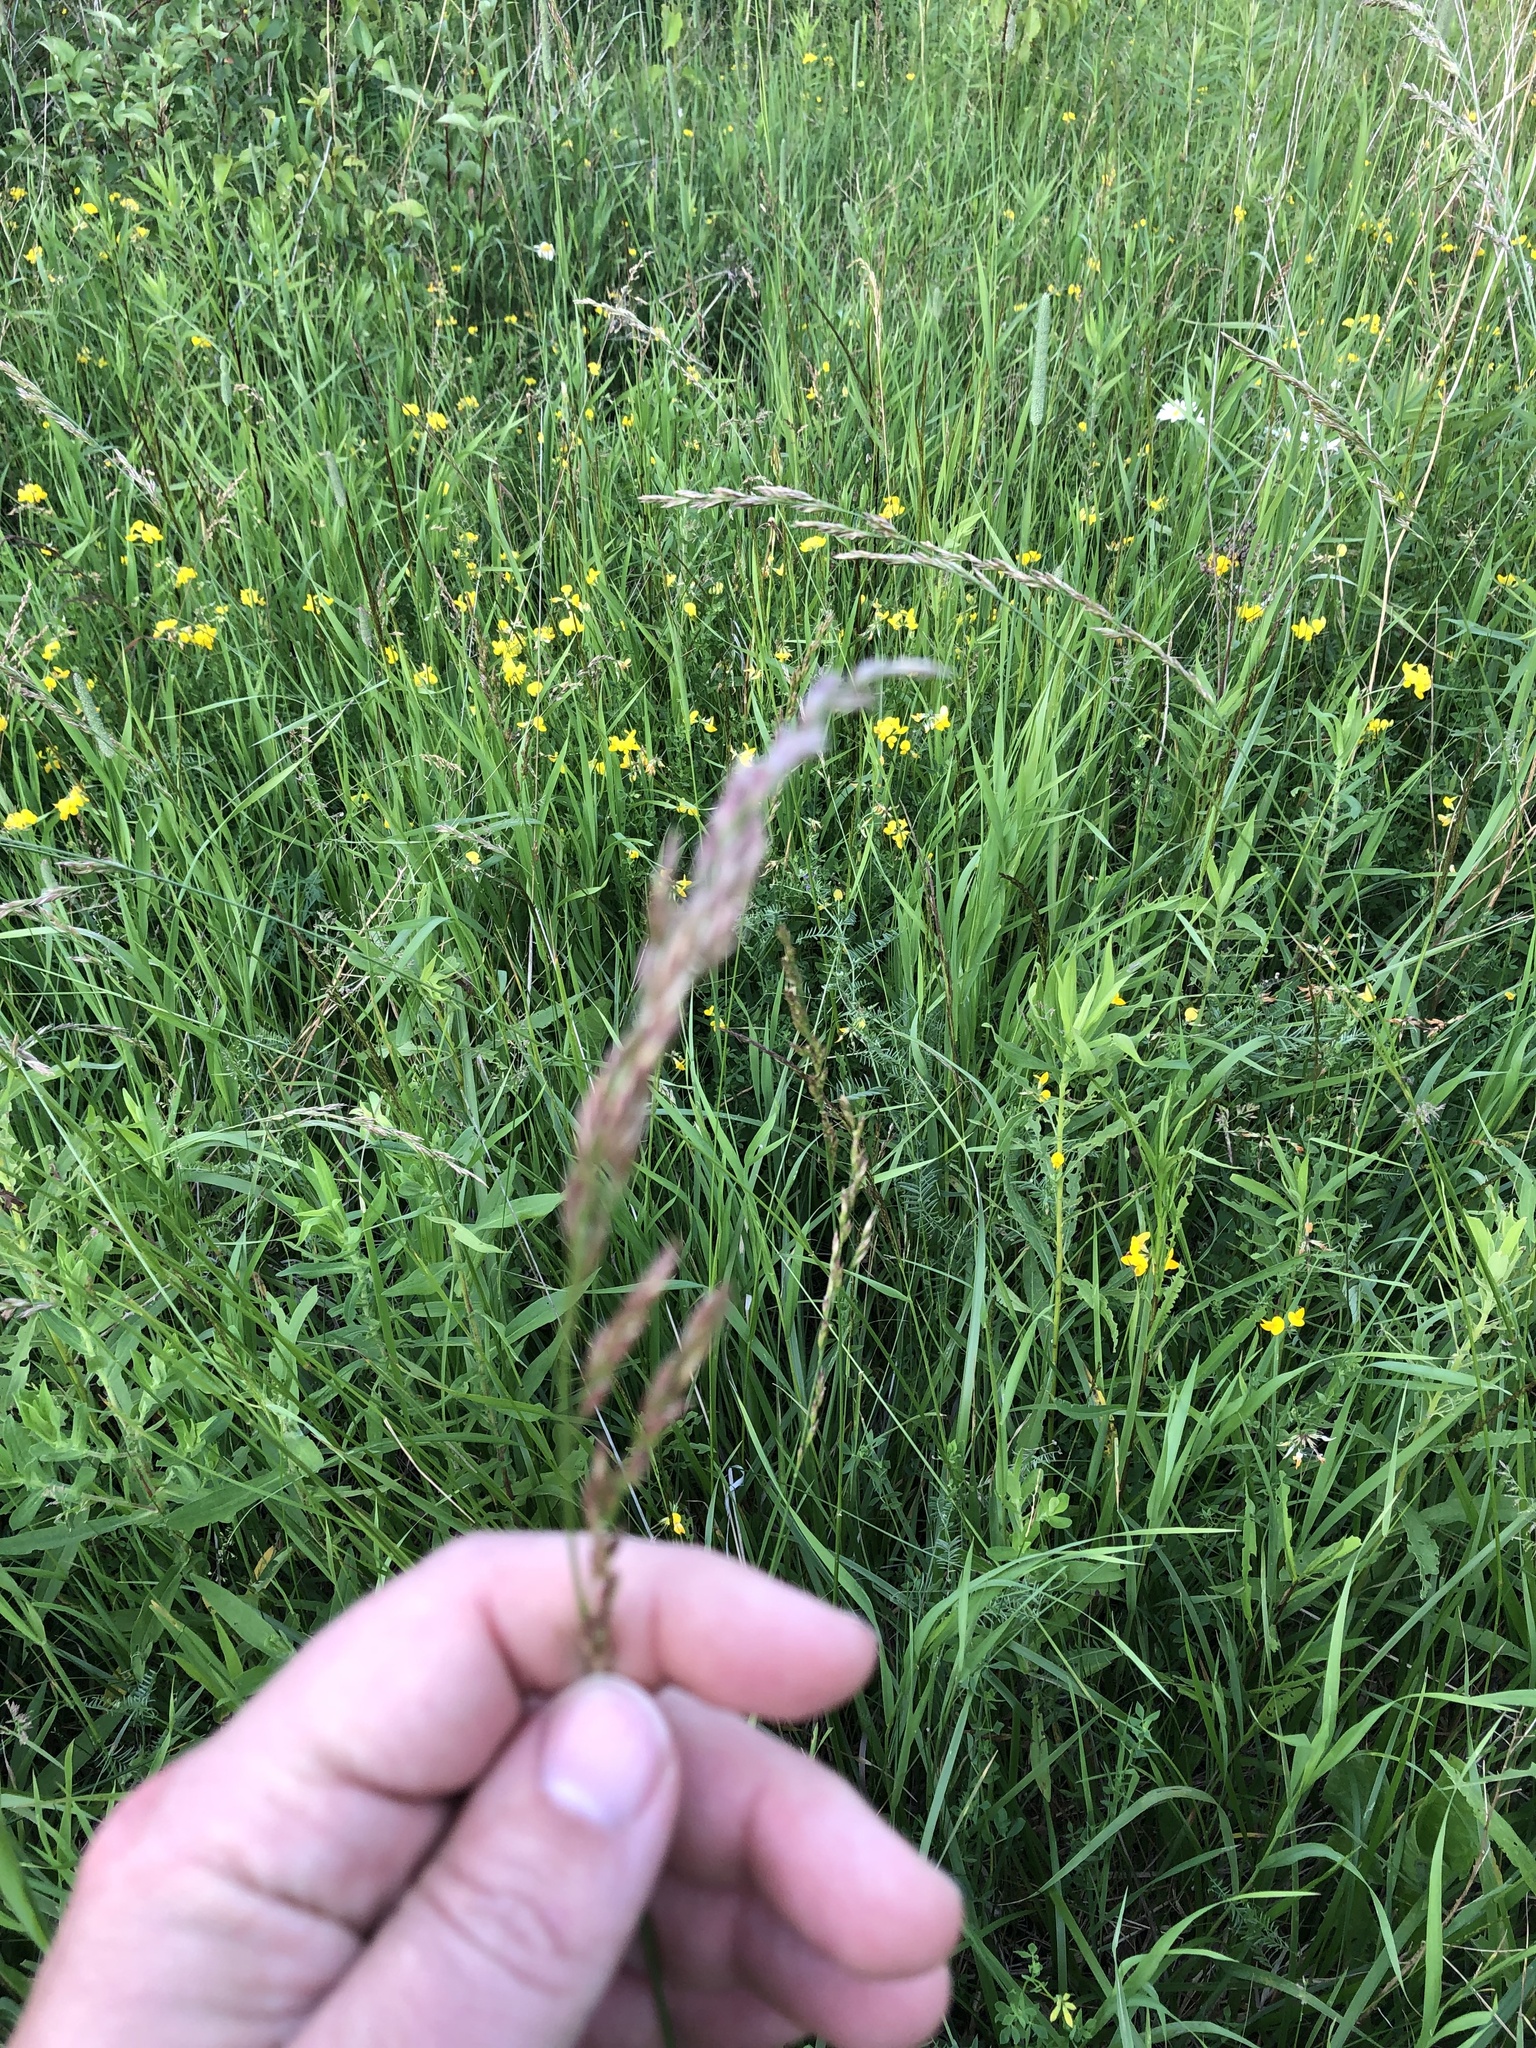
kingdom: Plantae
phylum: Tracheophyta
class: Liliopsida
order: Poales
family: Poaceae
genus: Lolium
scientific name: Lolium arundinaceum
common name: Reed fescue
